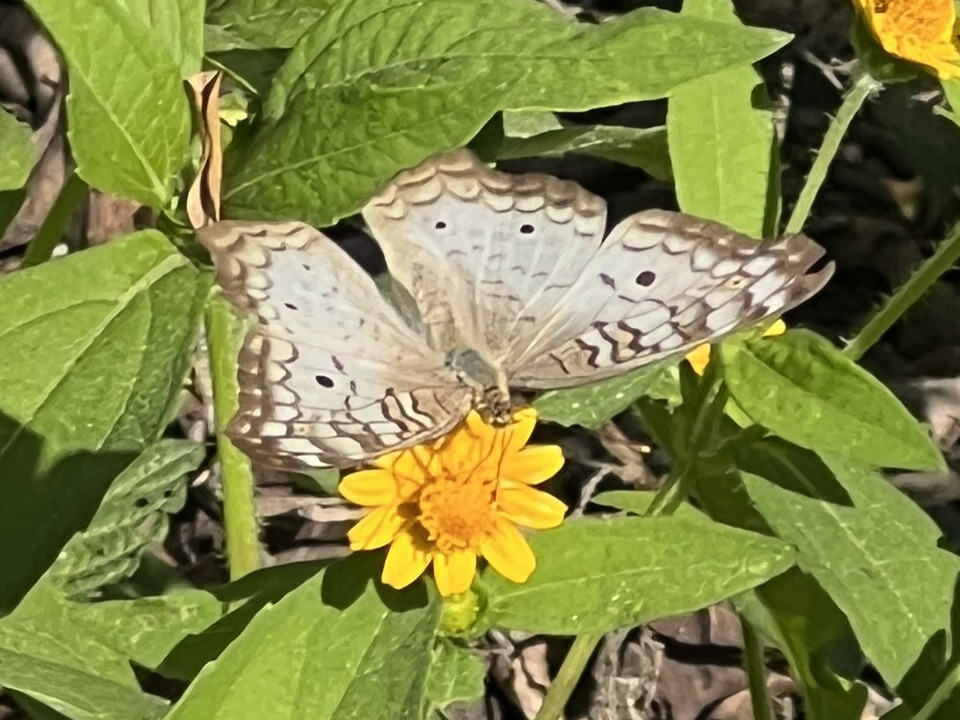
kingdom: Animalia
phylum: Arthropoda
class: Insecta
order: Lepidoptera
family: Nymphalidae
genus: Anartia
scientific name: Anartia jatrophae
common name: White peacock
